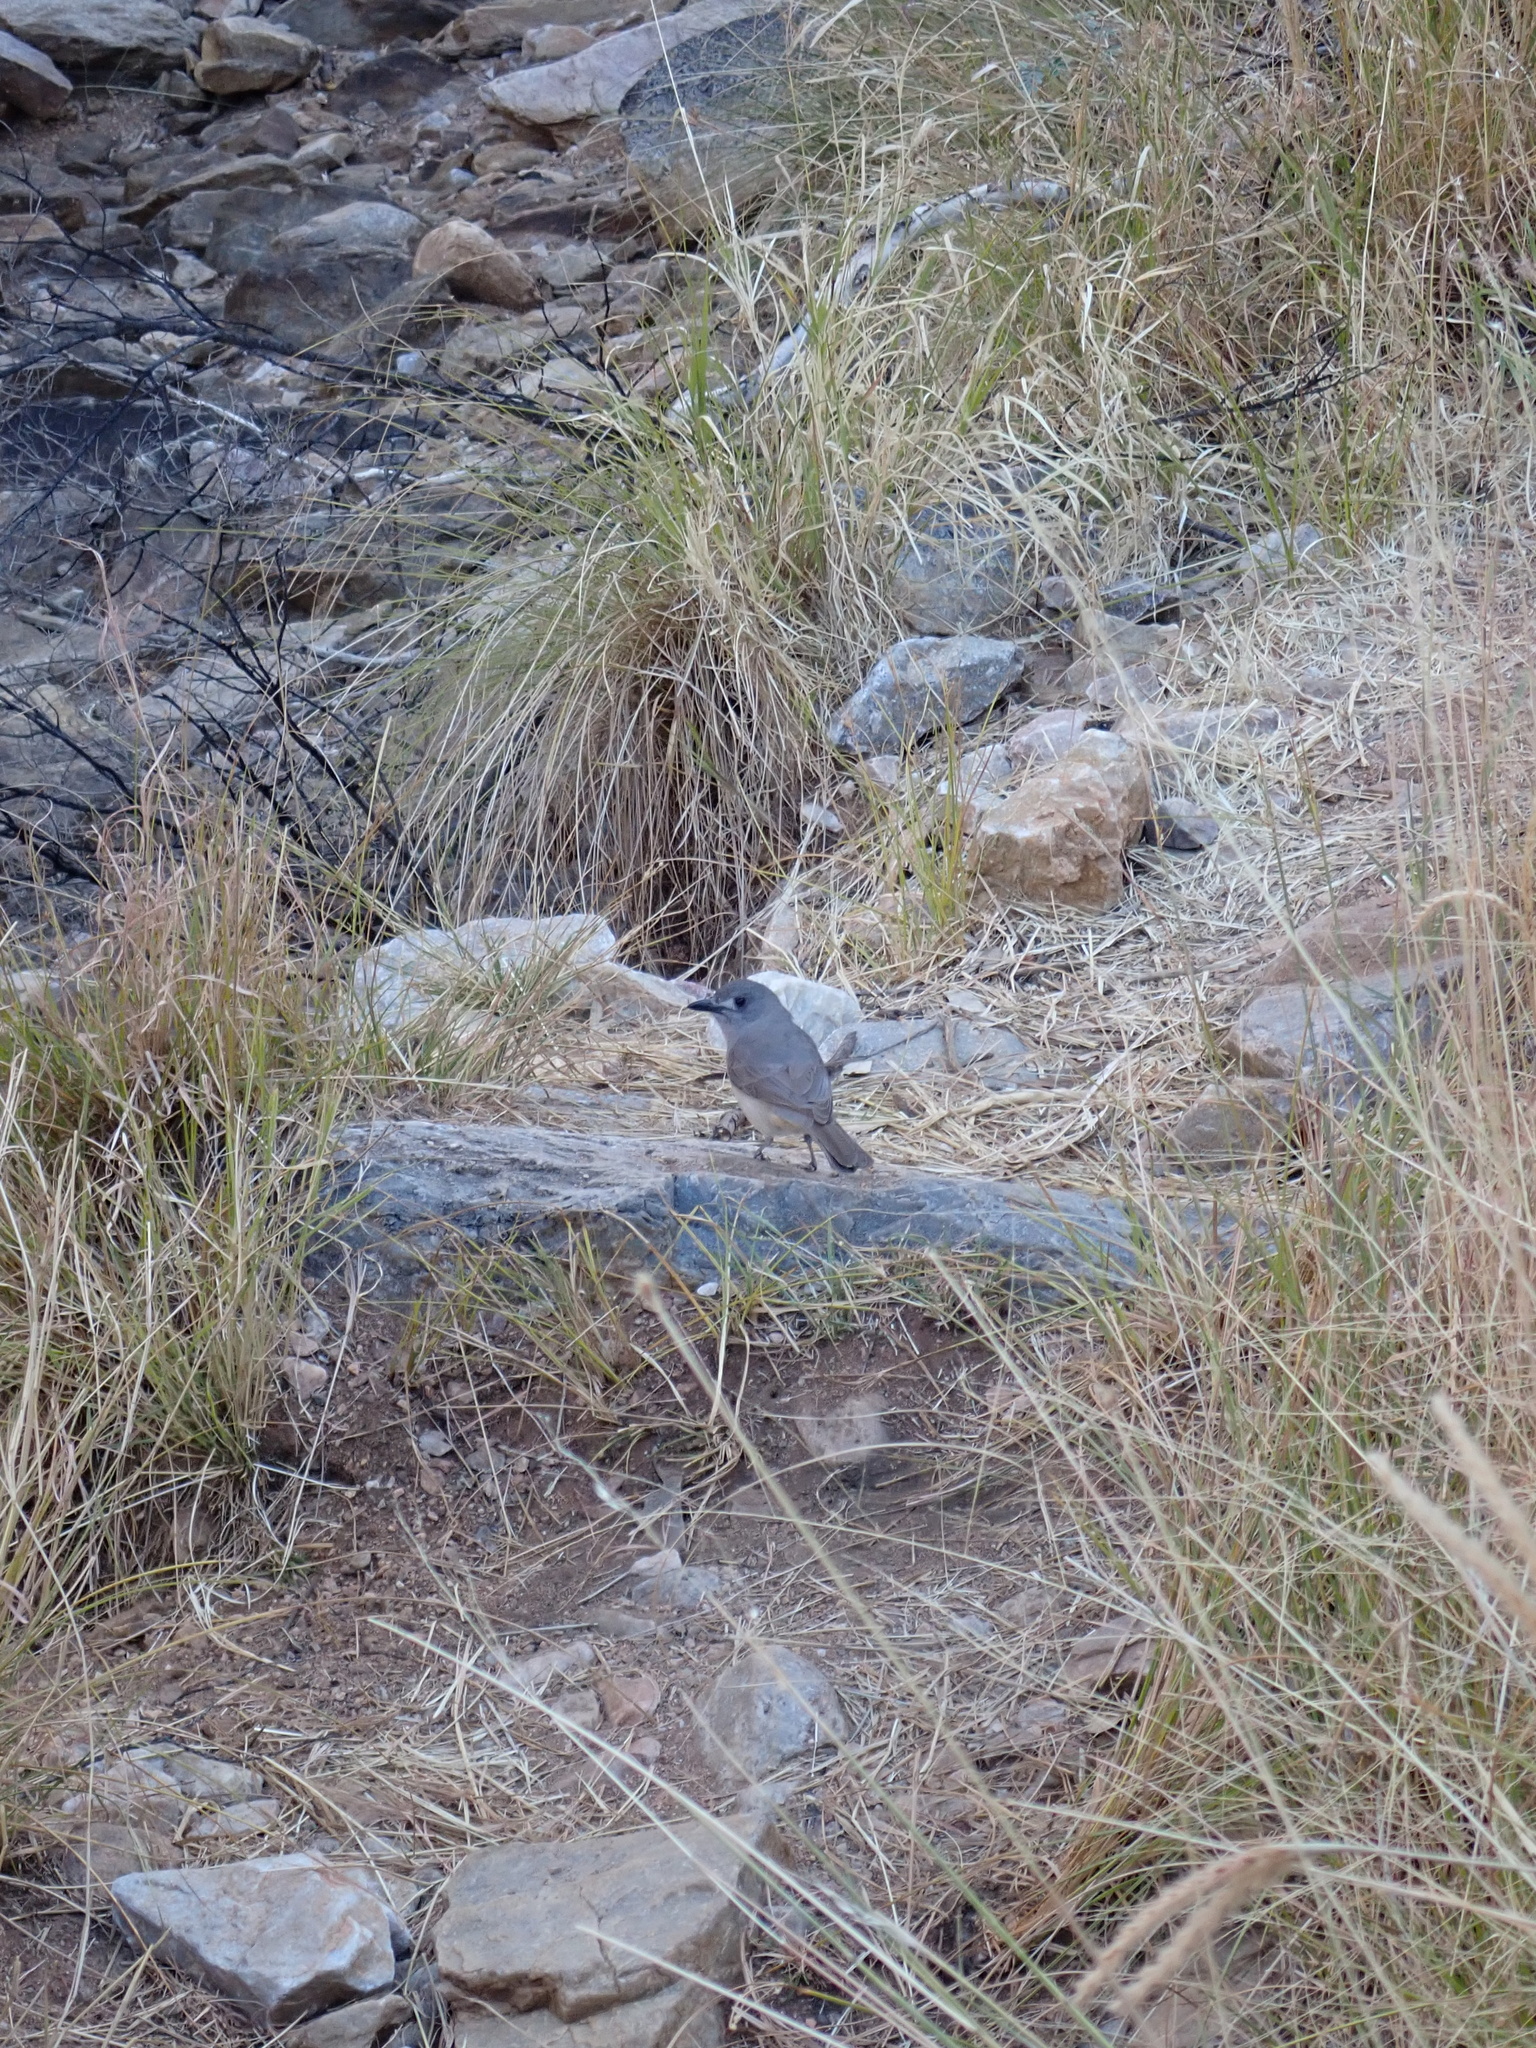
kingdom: Animalia
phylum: Chordata
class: Aves
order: Passeriformes
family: Pachycephalidae
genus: Colluricincla
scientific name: Colluricincla harmonica
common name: Grey shrikethrush
